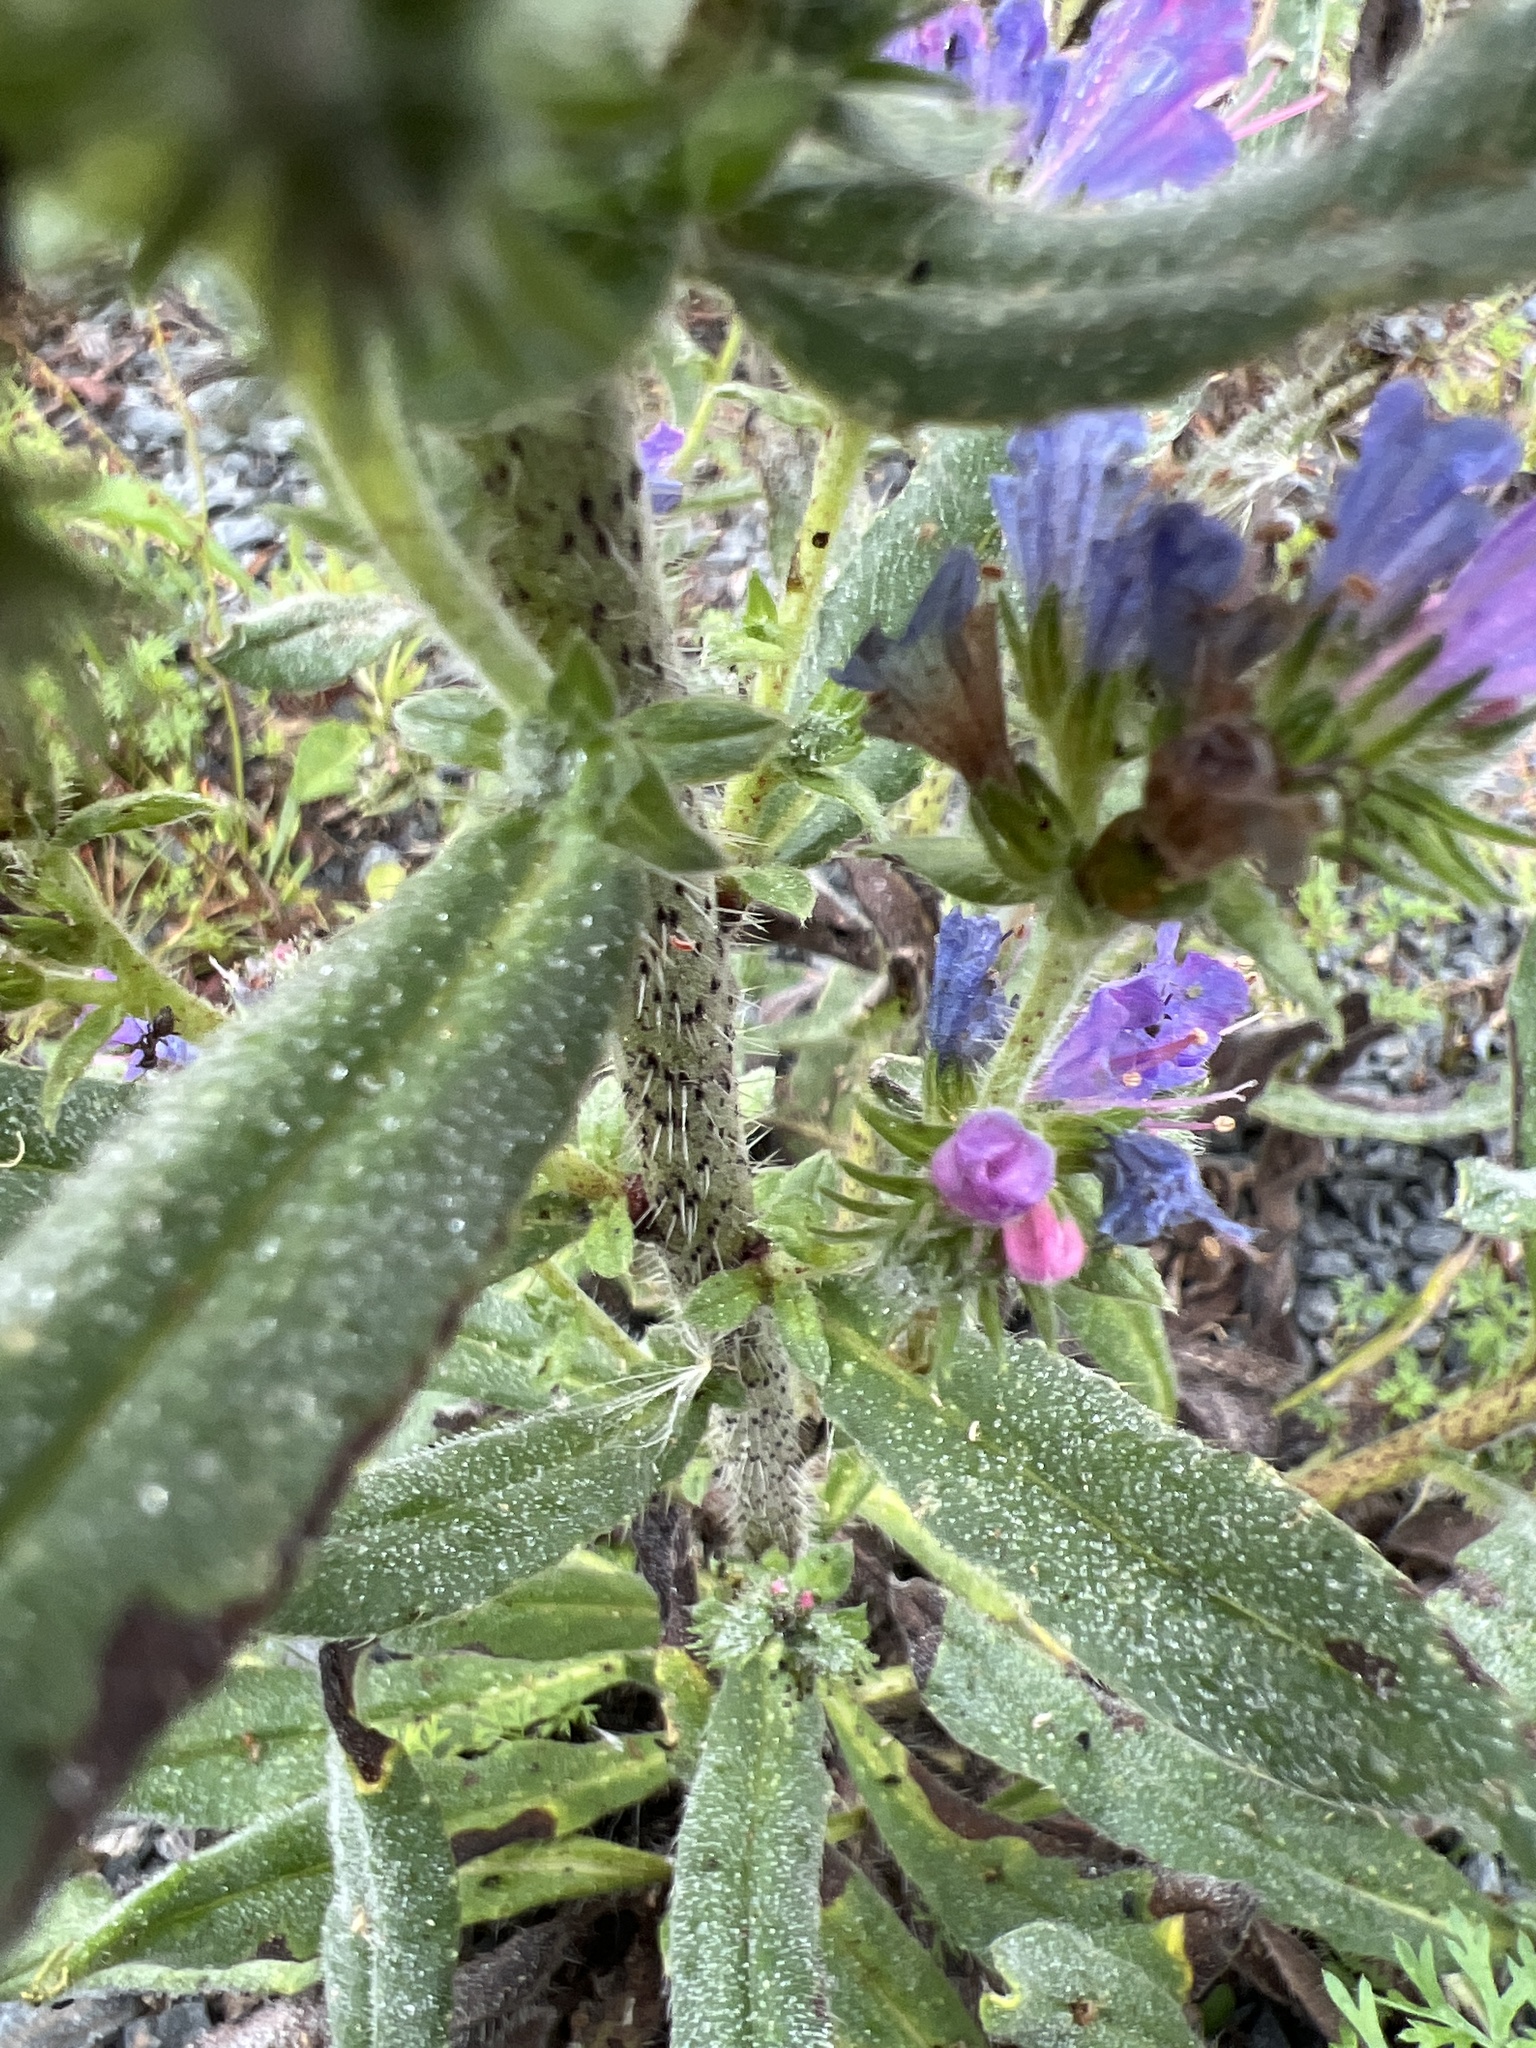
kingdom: Plantae
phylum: Tracheophyta
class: Magnoliopsida
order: Boraginales
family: Boraginaceae
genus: Echium
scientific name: Echium vulgare
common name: Common viper's bugloss
